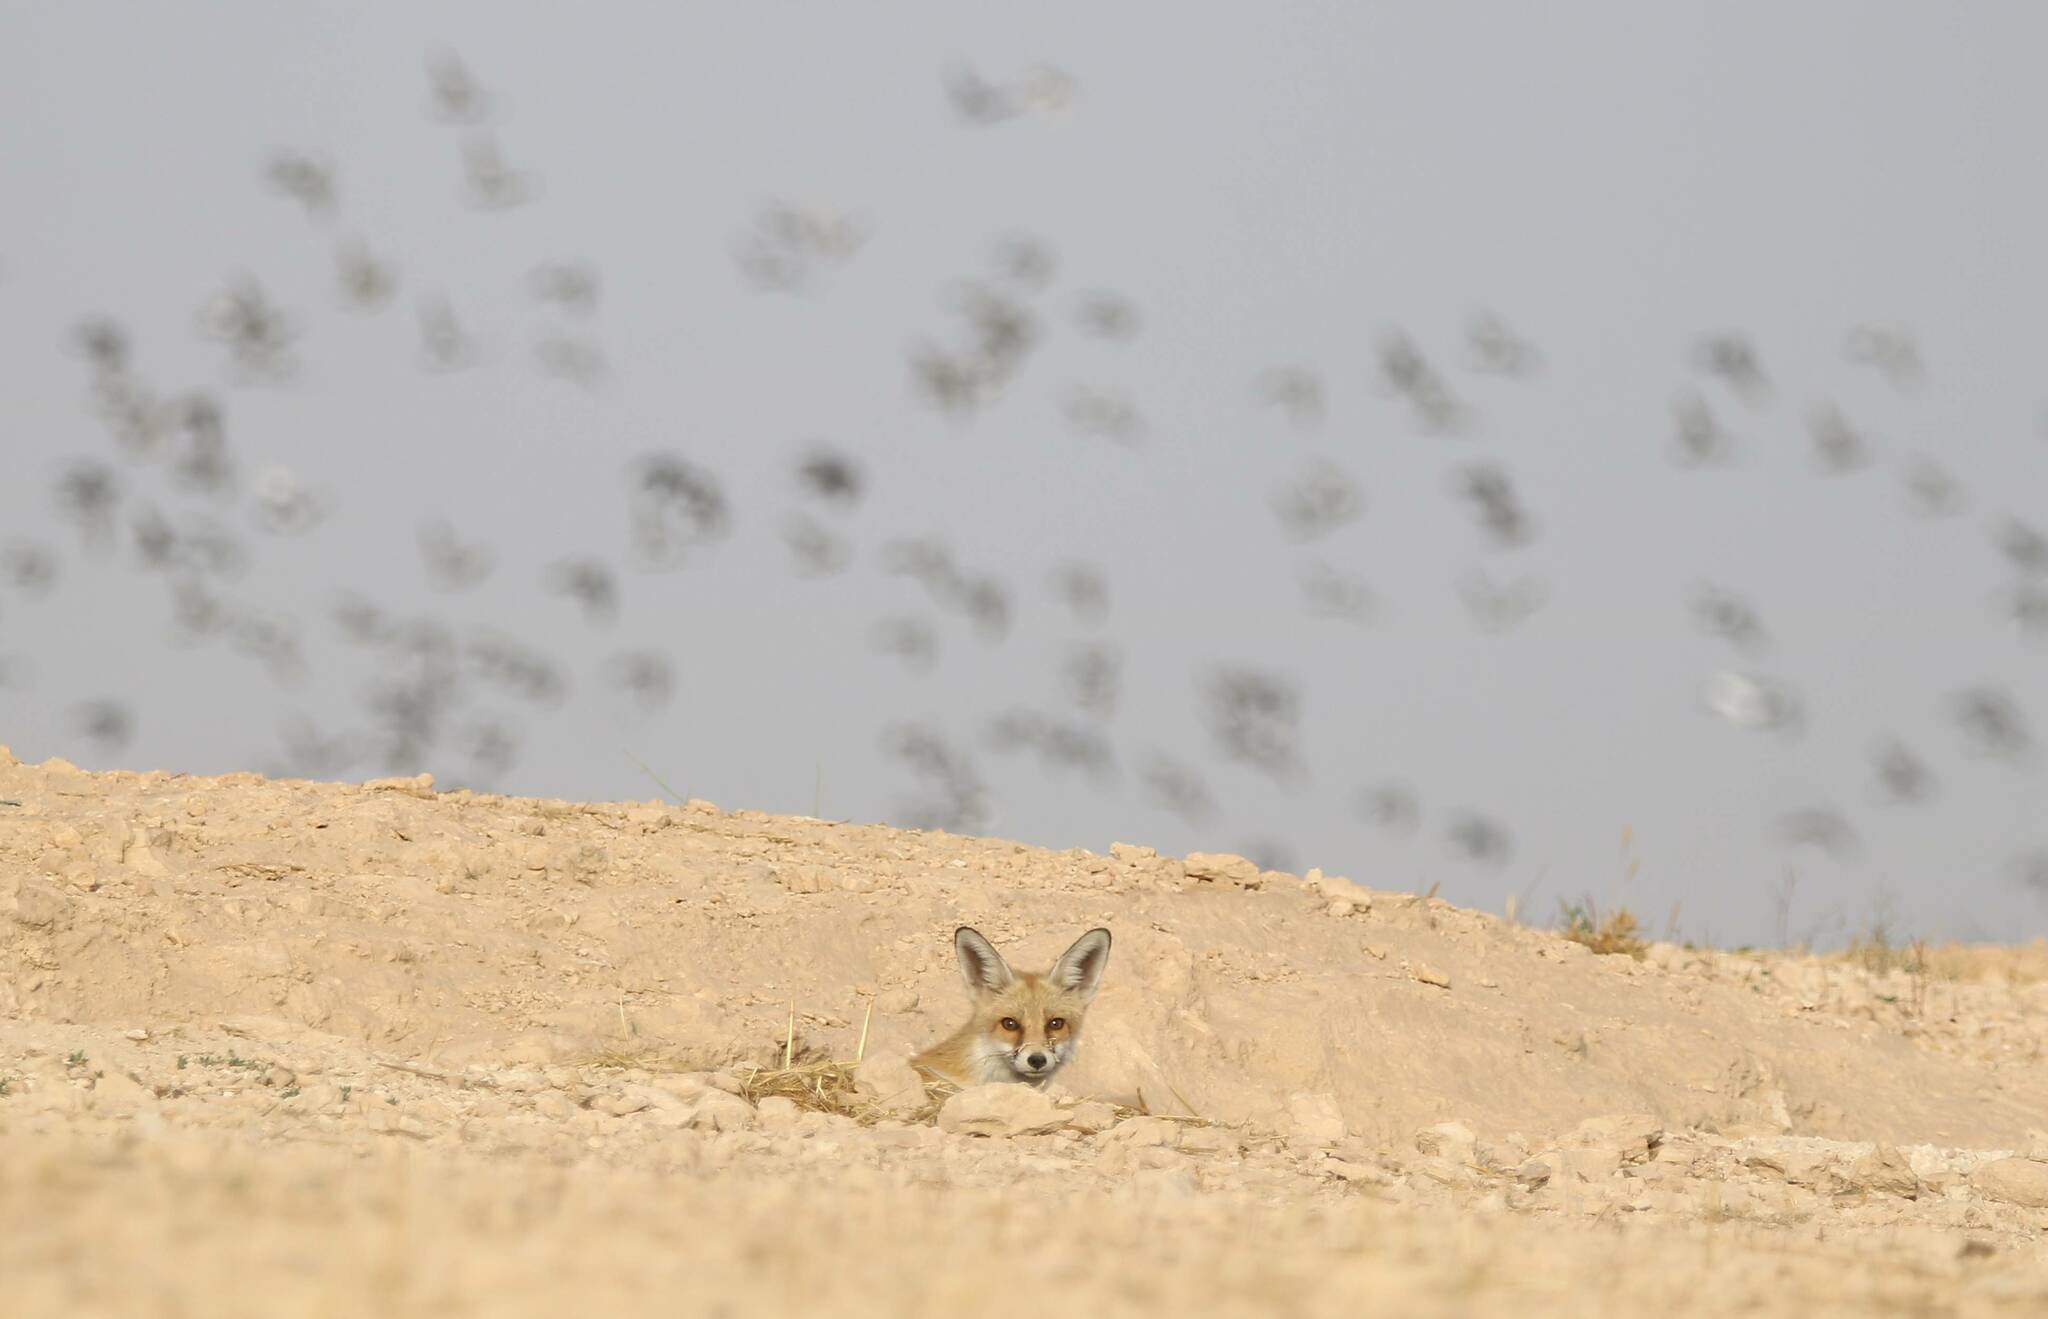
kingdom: Animalia
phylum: Chordata
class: Mammalia
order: Carnivora
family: Canidae
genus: Vulpes
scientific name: Vulpes vulpes
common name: Red fox
